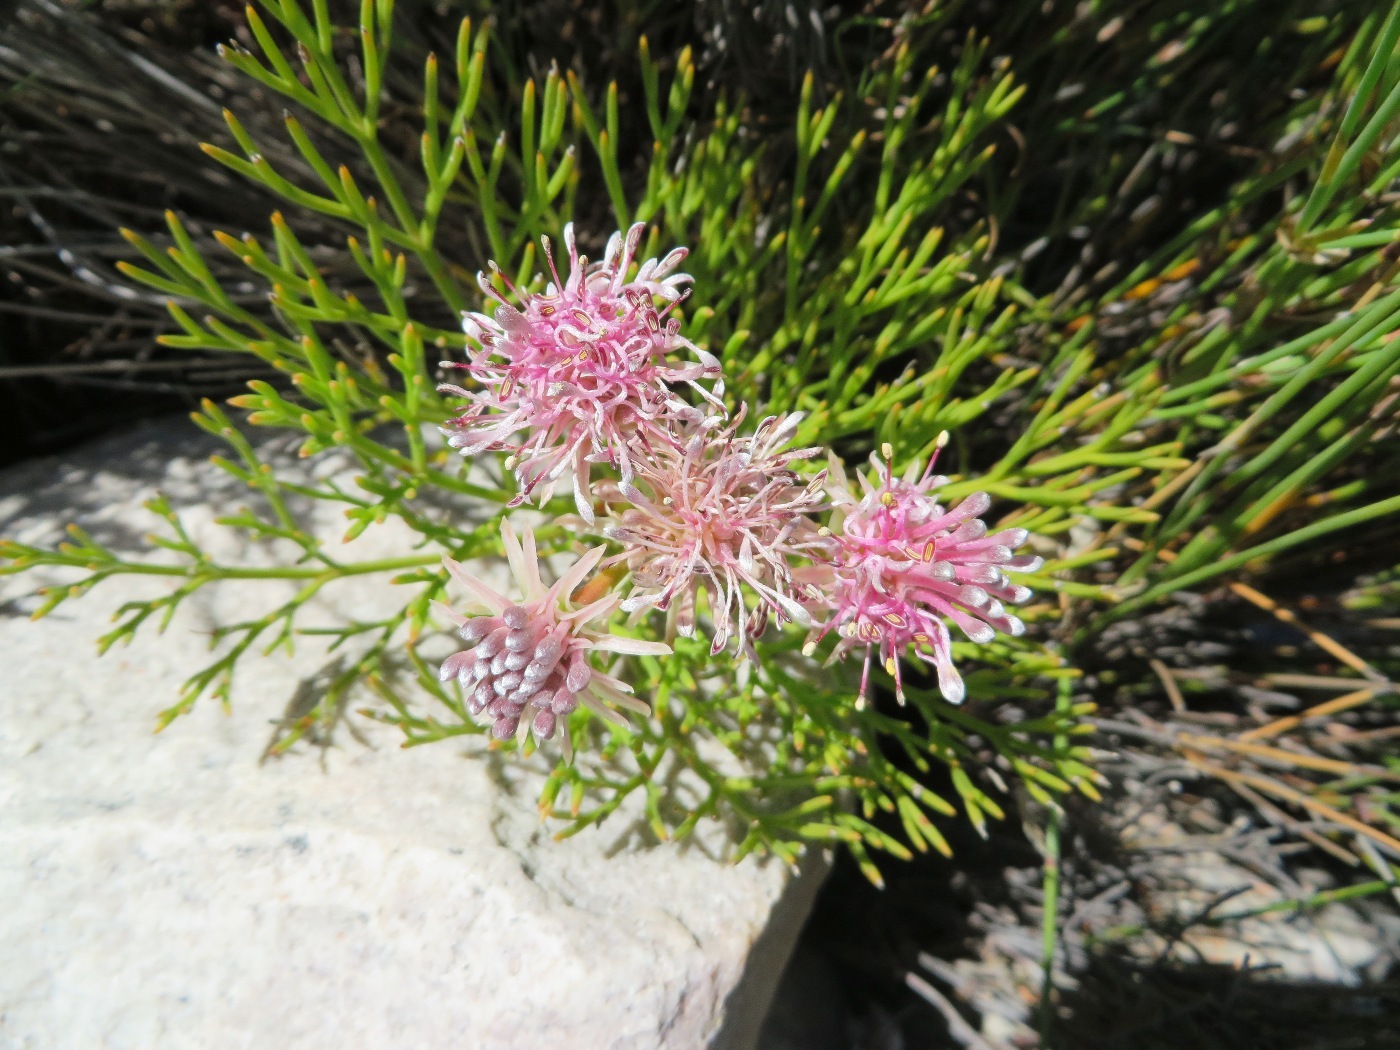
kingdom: Plantae
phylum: Tracheophyta
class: Magnoliopsida
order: Proteales
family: Proteaceae
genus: Serruria
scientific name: Serruria elongata
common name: Long-stalk spiderhead
